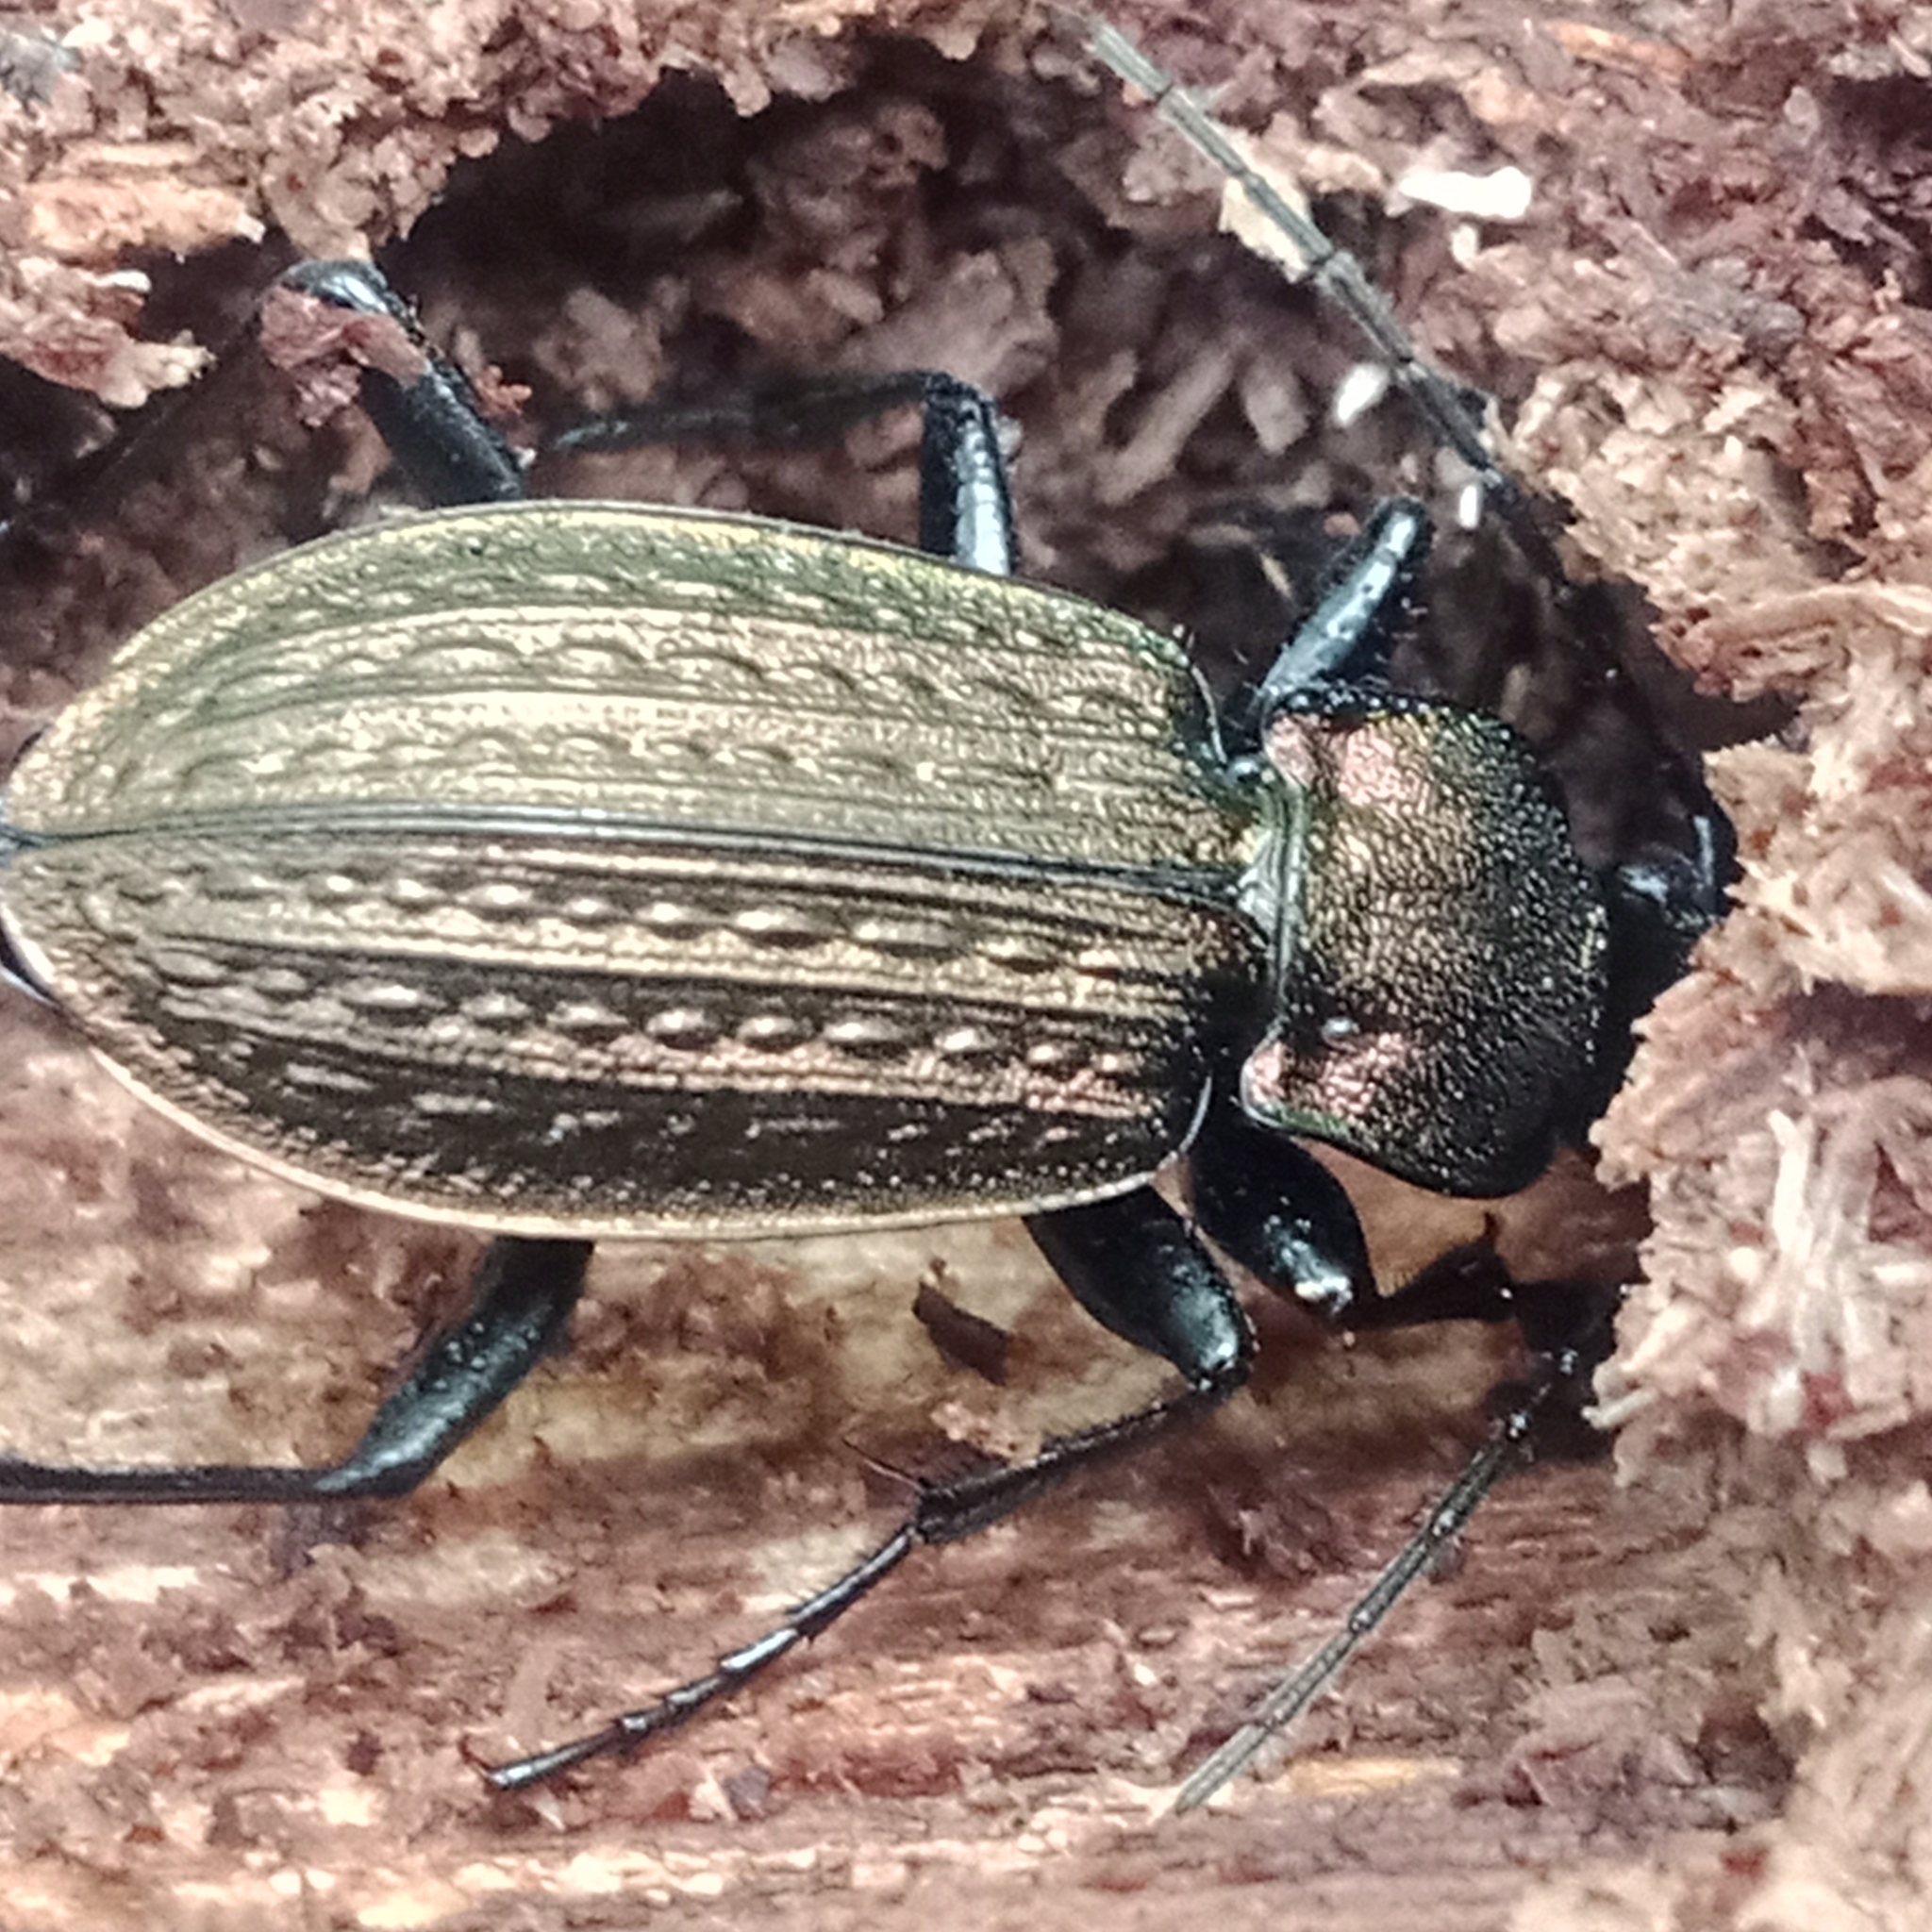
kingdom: Animalia
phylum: Arthropoda
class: Insecta
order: Coleoptera
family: Carabidae
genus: Carabus
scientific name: Carabus granulatus
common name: Granulate ground beetle
